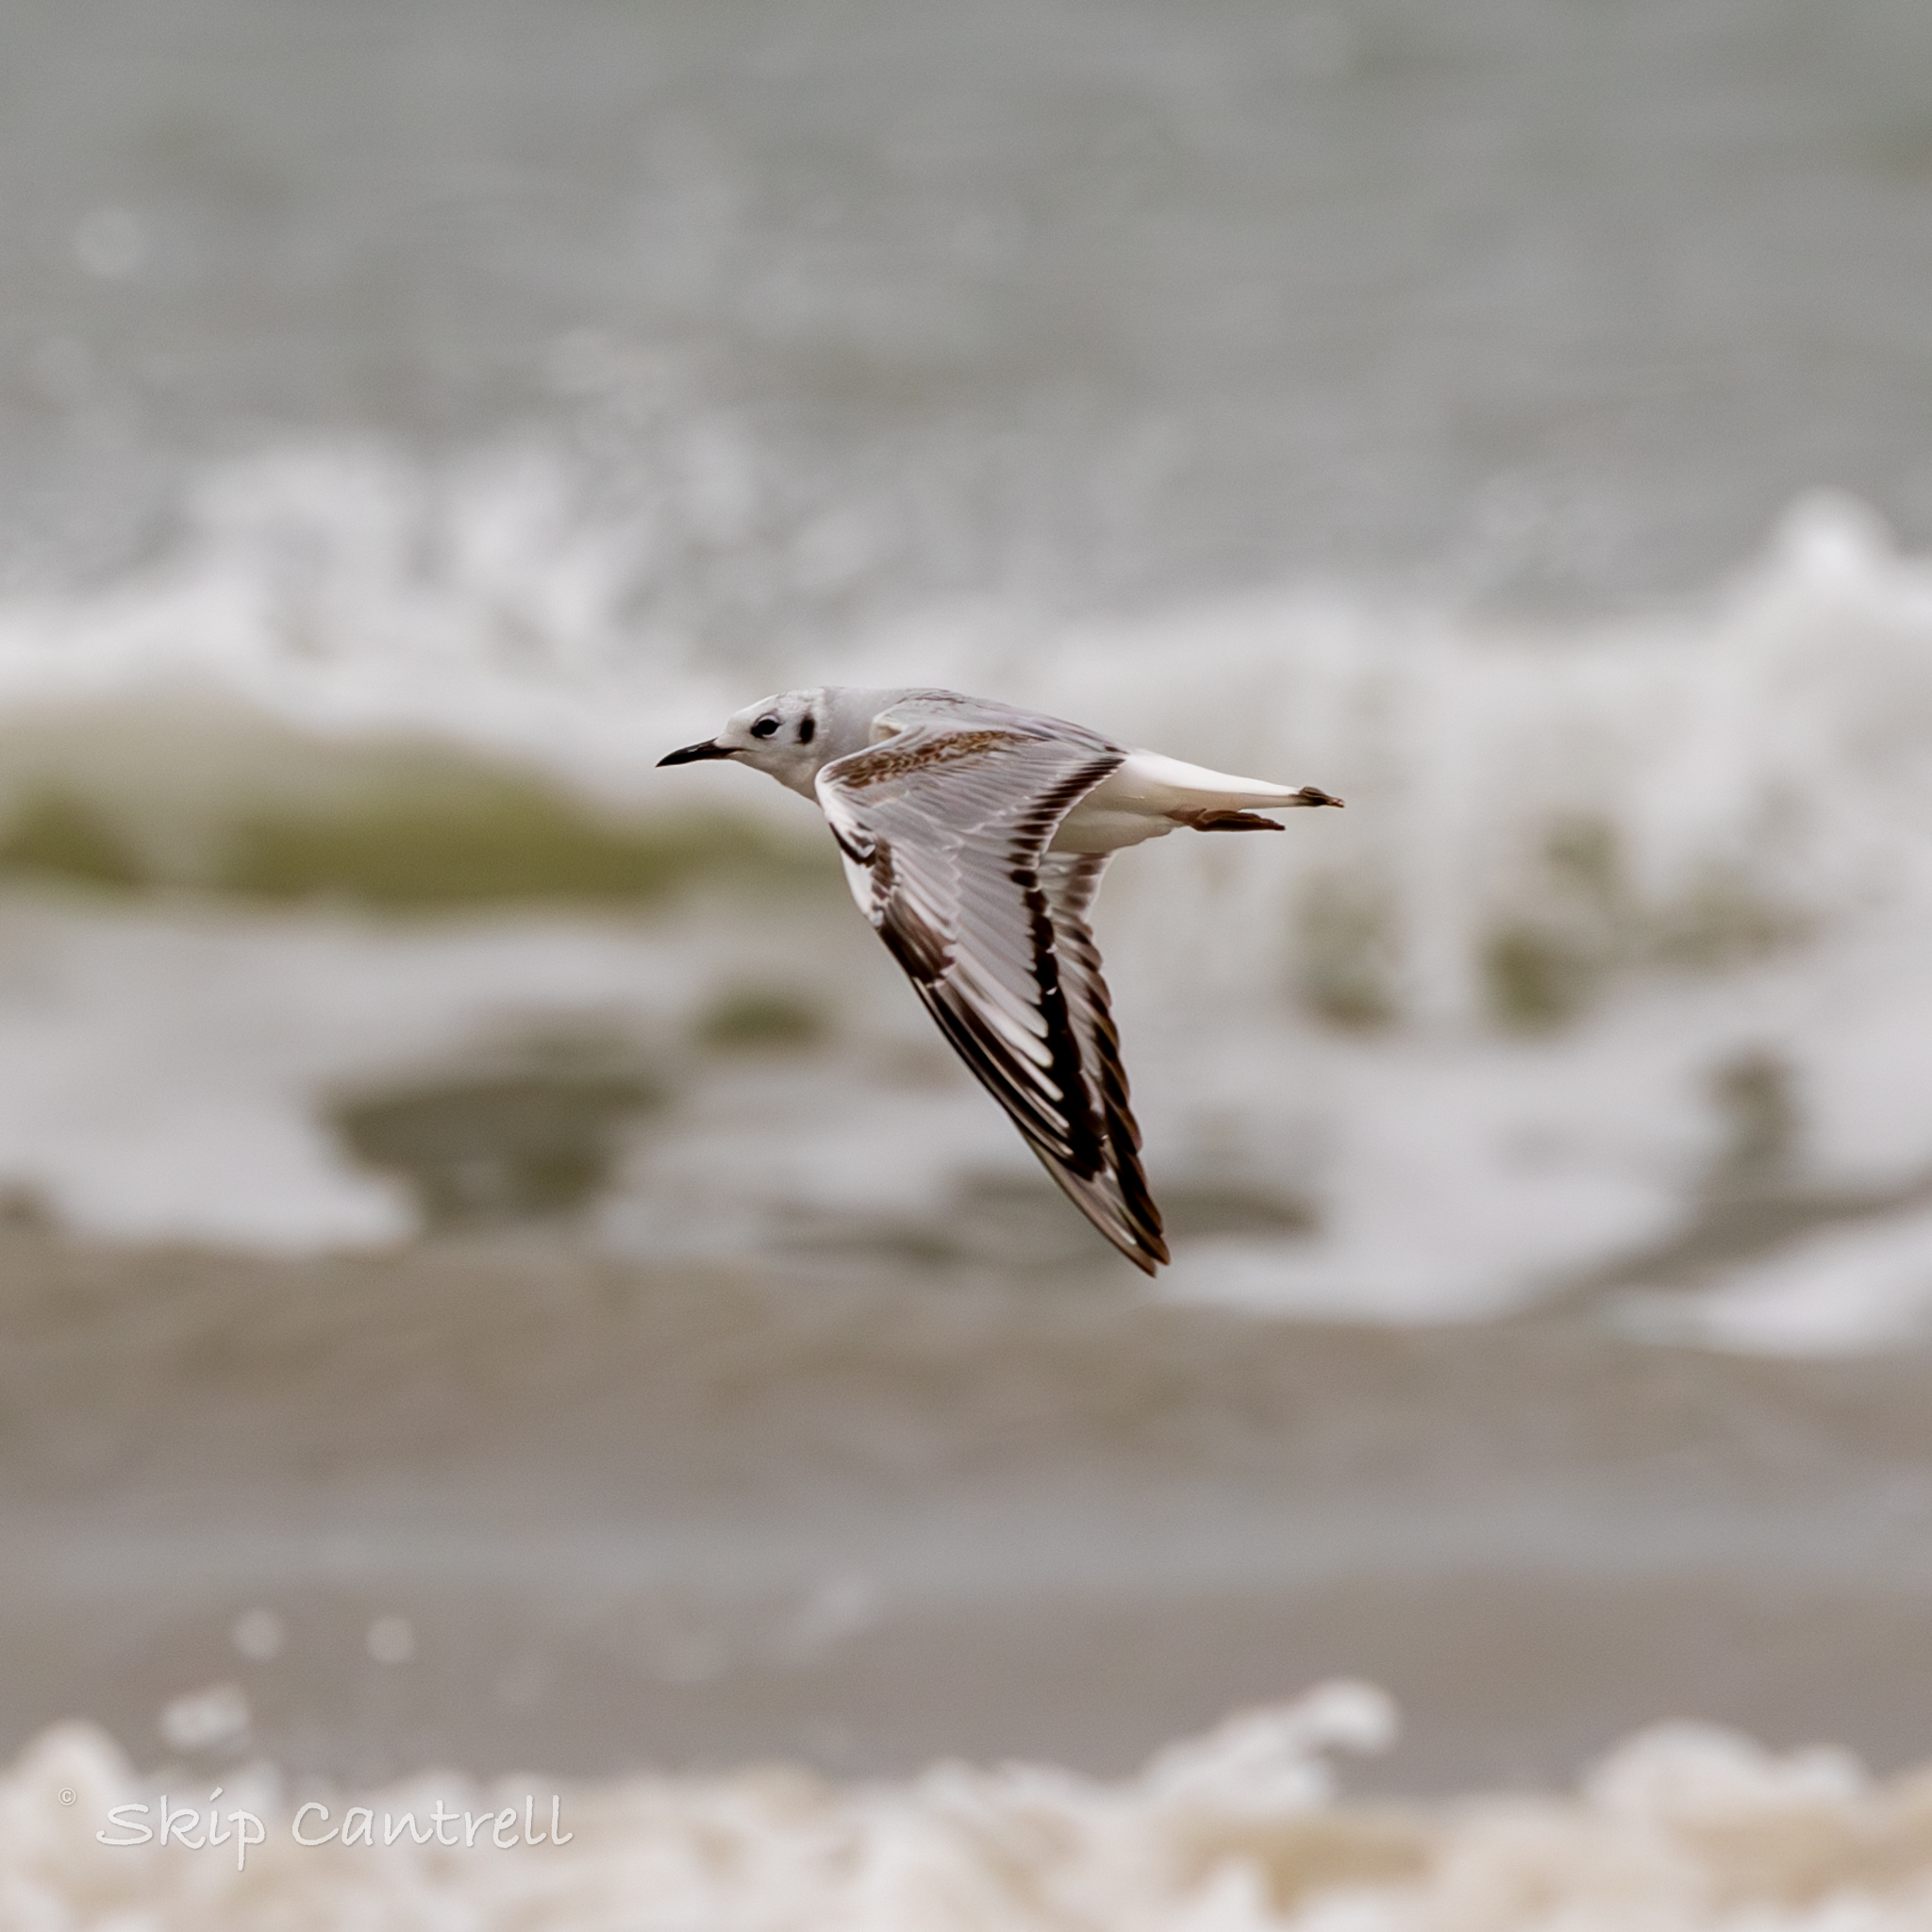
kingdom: Animalia
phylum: Chordata
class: Aves
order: Charadriiformes
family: Laridae
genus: Chroicocephalus
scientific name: Chroicocephalus philadelphia
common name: Bonaparte's gull
